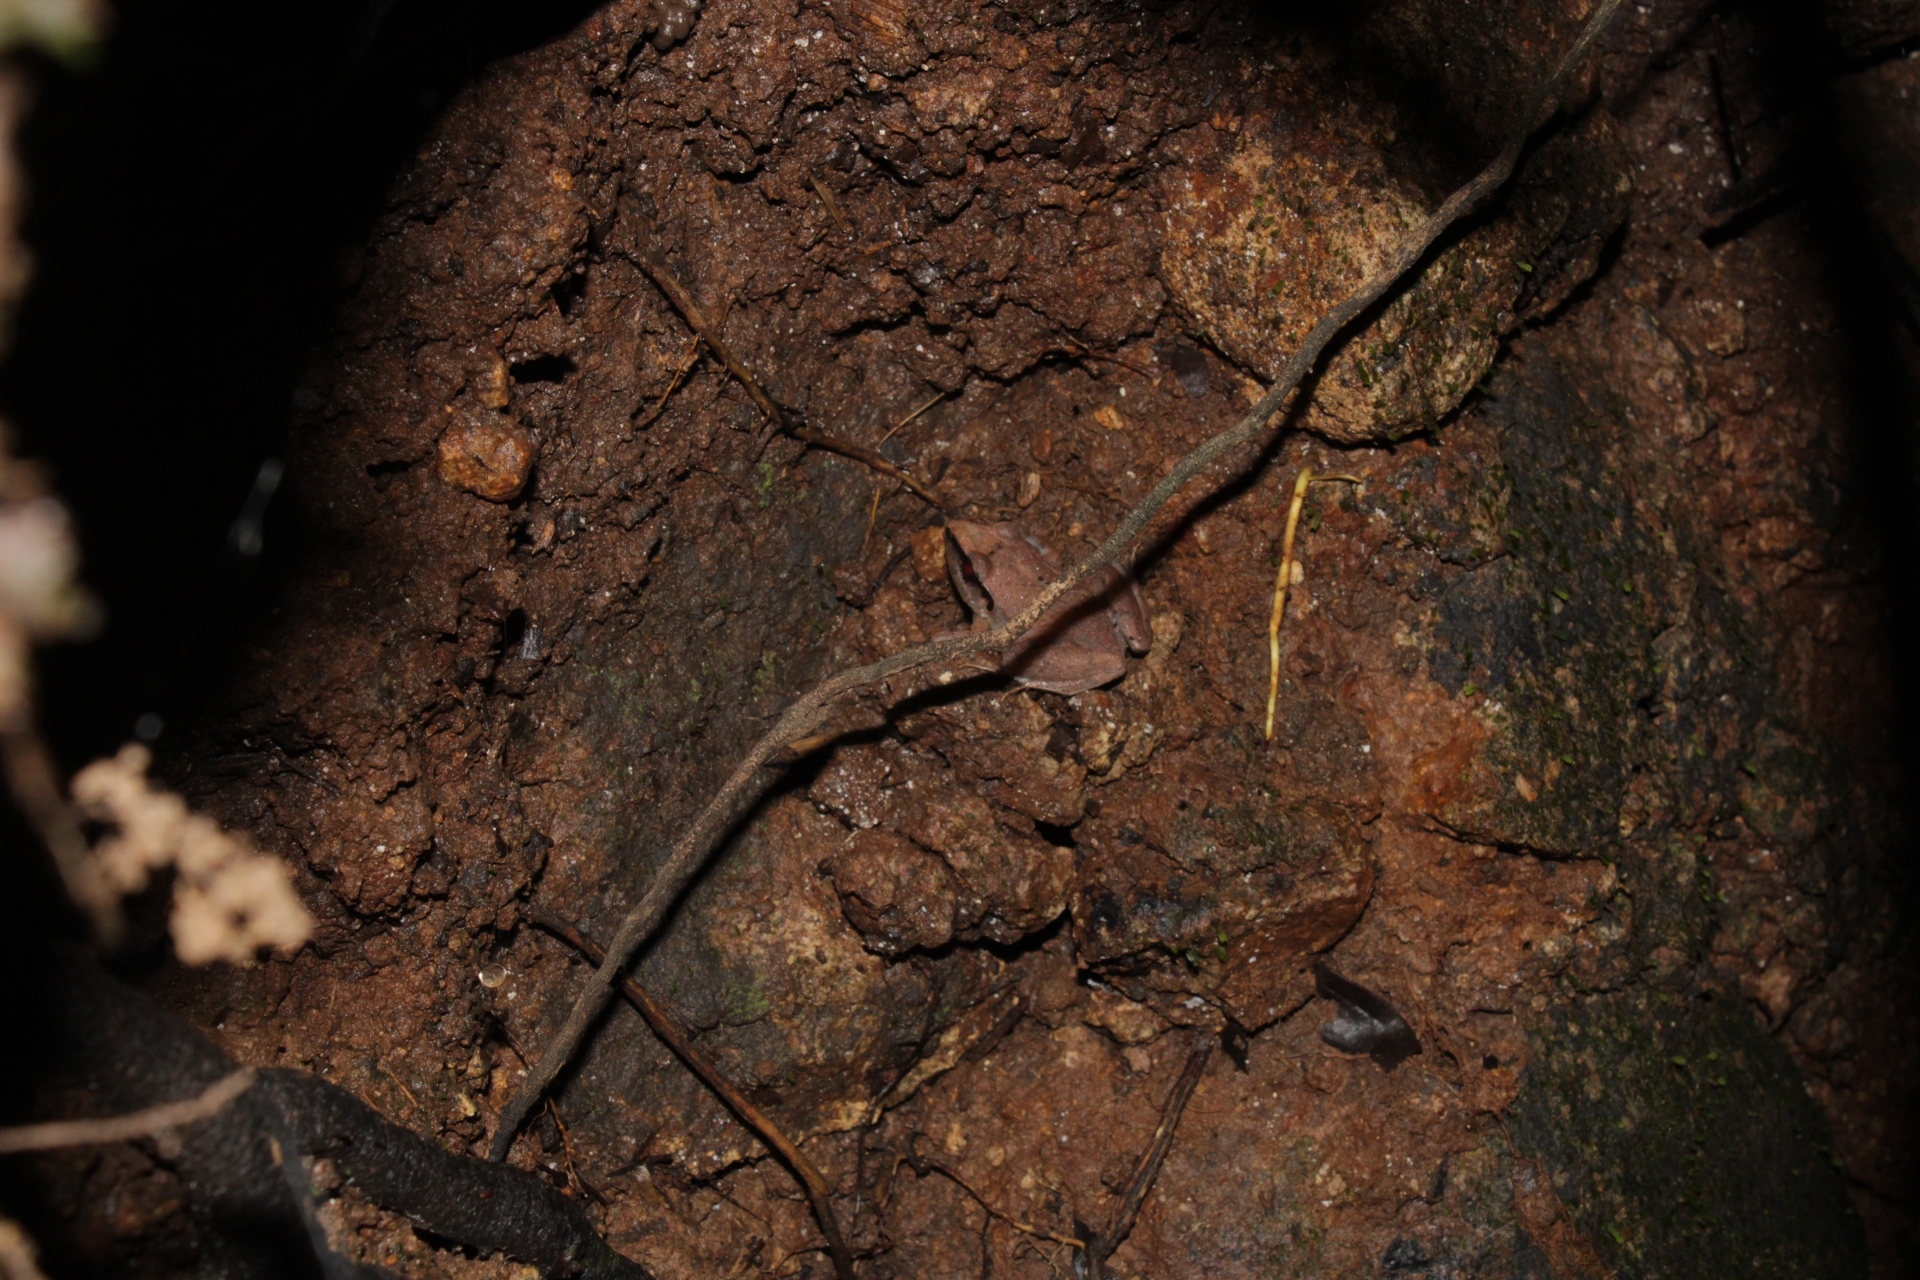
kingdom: Animalia
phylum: Chordata
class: Amphibia
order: Anura
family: Craugastoridae
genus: Craugastor
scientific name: Craugastor loki
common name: Common leaf-litter frog
